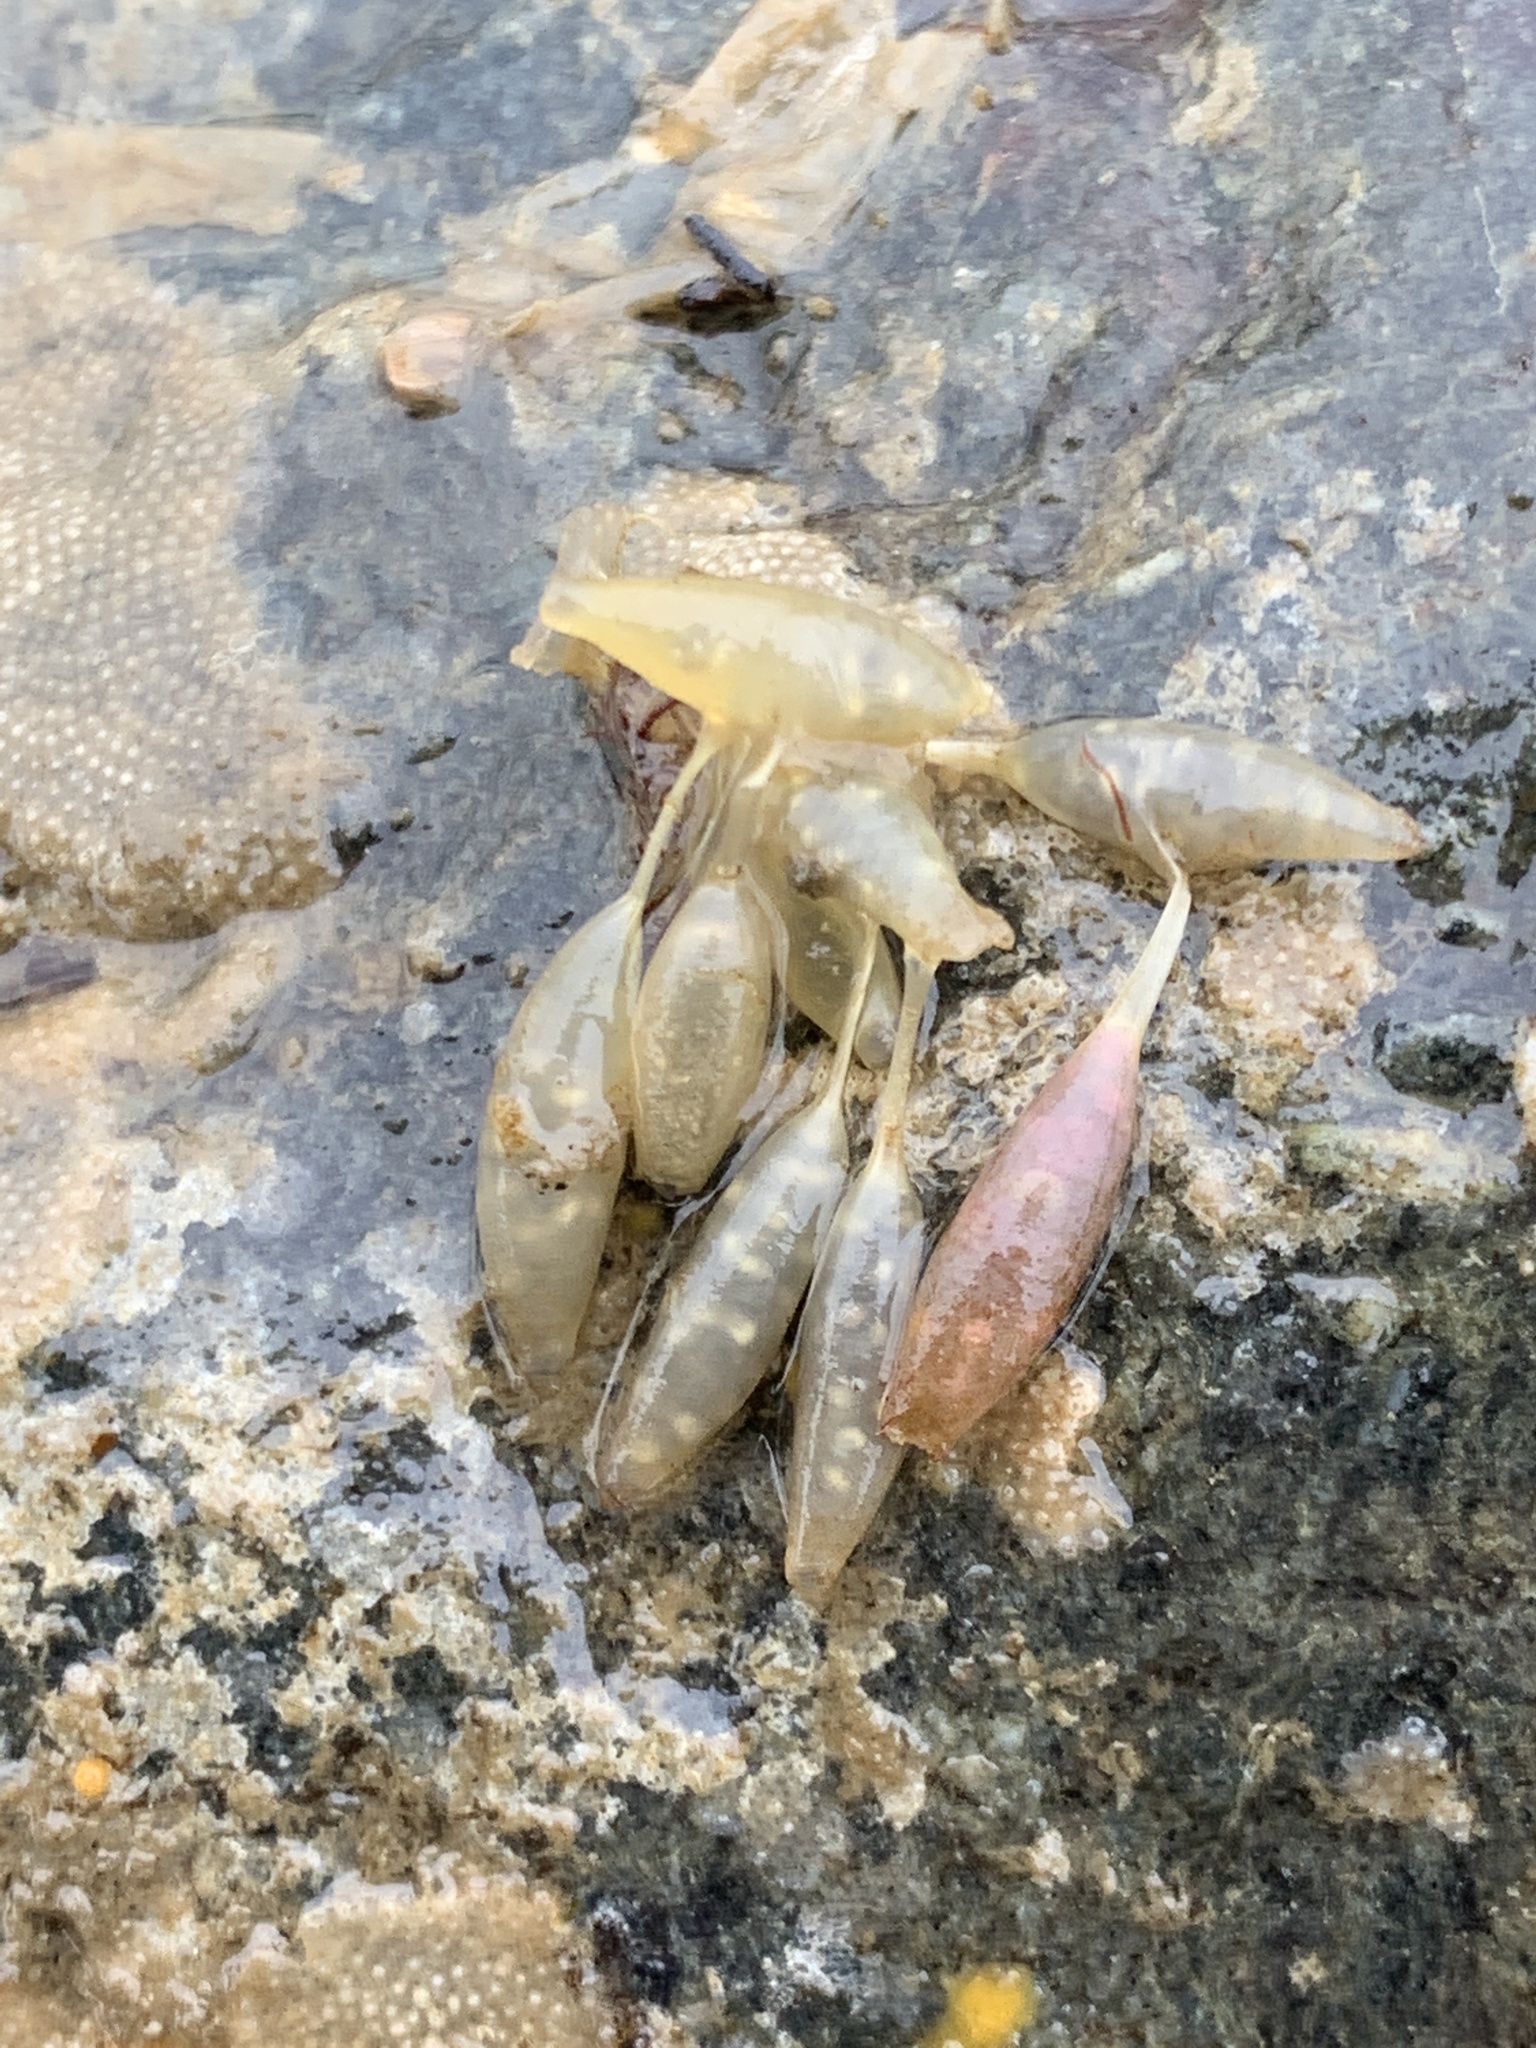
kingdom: Animalia
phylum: Mollusca
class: Gastropoda
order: Neogastropoda
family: Muricidae
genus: Nucella
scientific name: Nucella lamellosa
